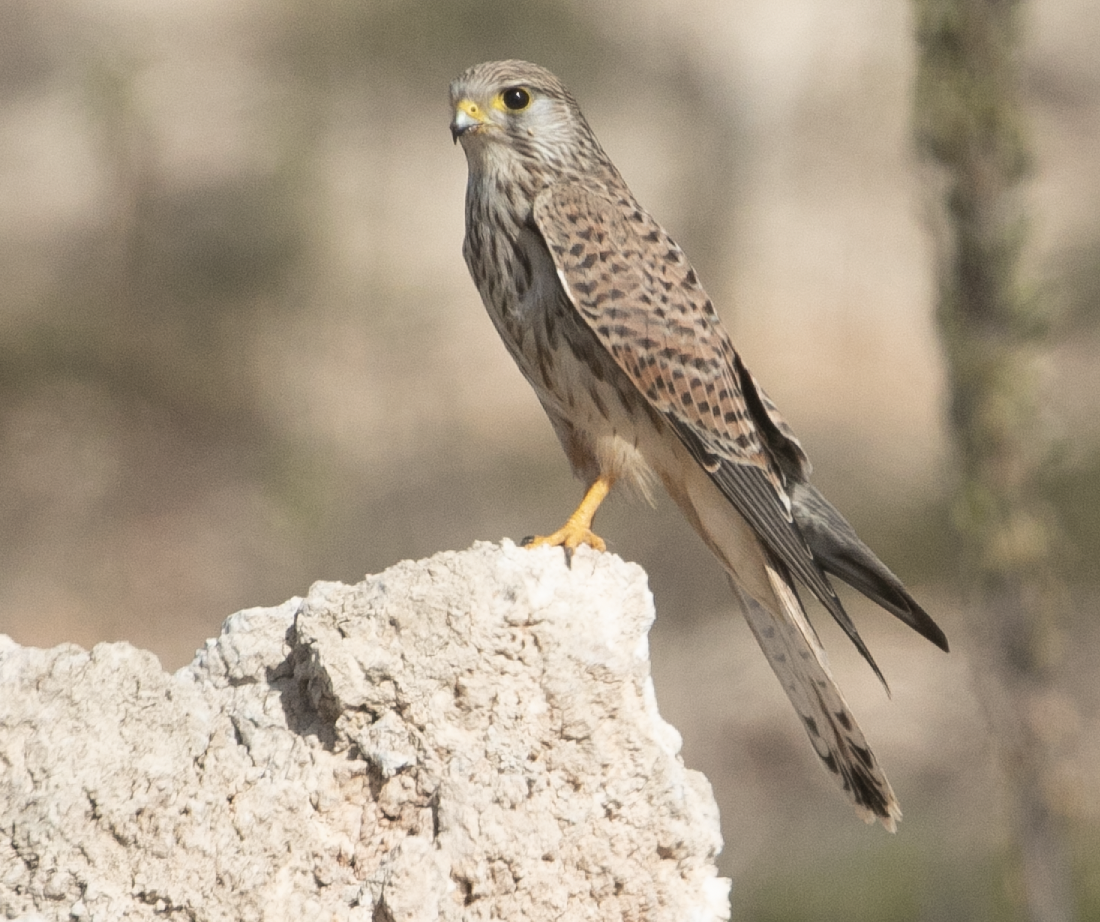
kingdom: Animalia
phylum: Chordata
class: Aves
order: Falconiformes
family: Falconidae
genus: Falco
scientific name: Falco tinnunculus
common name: Common kestrel
